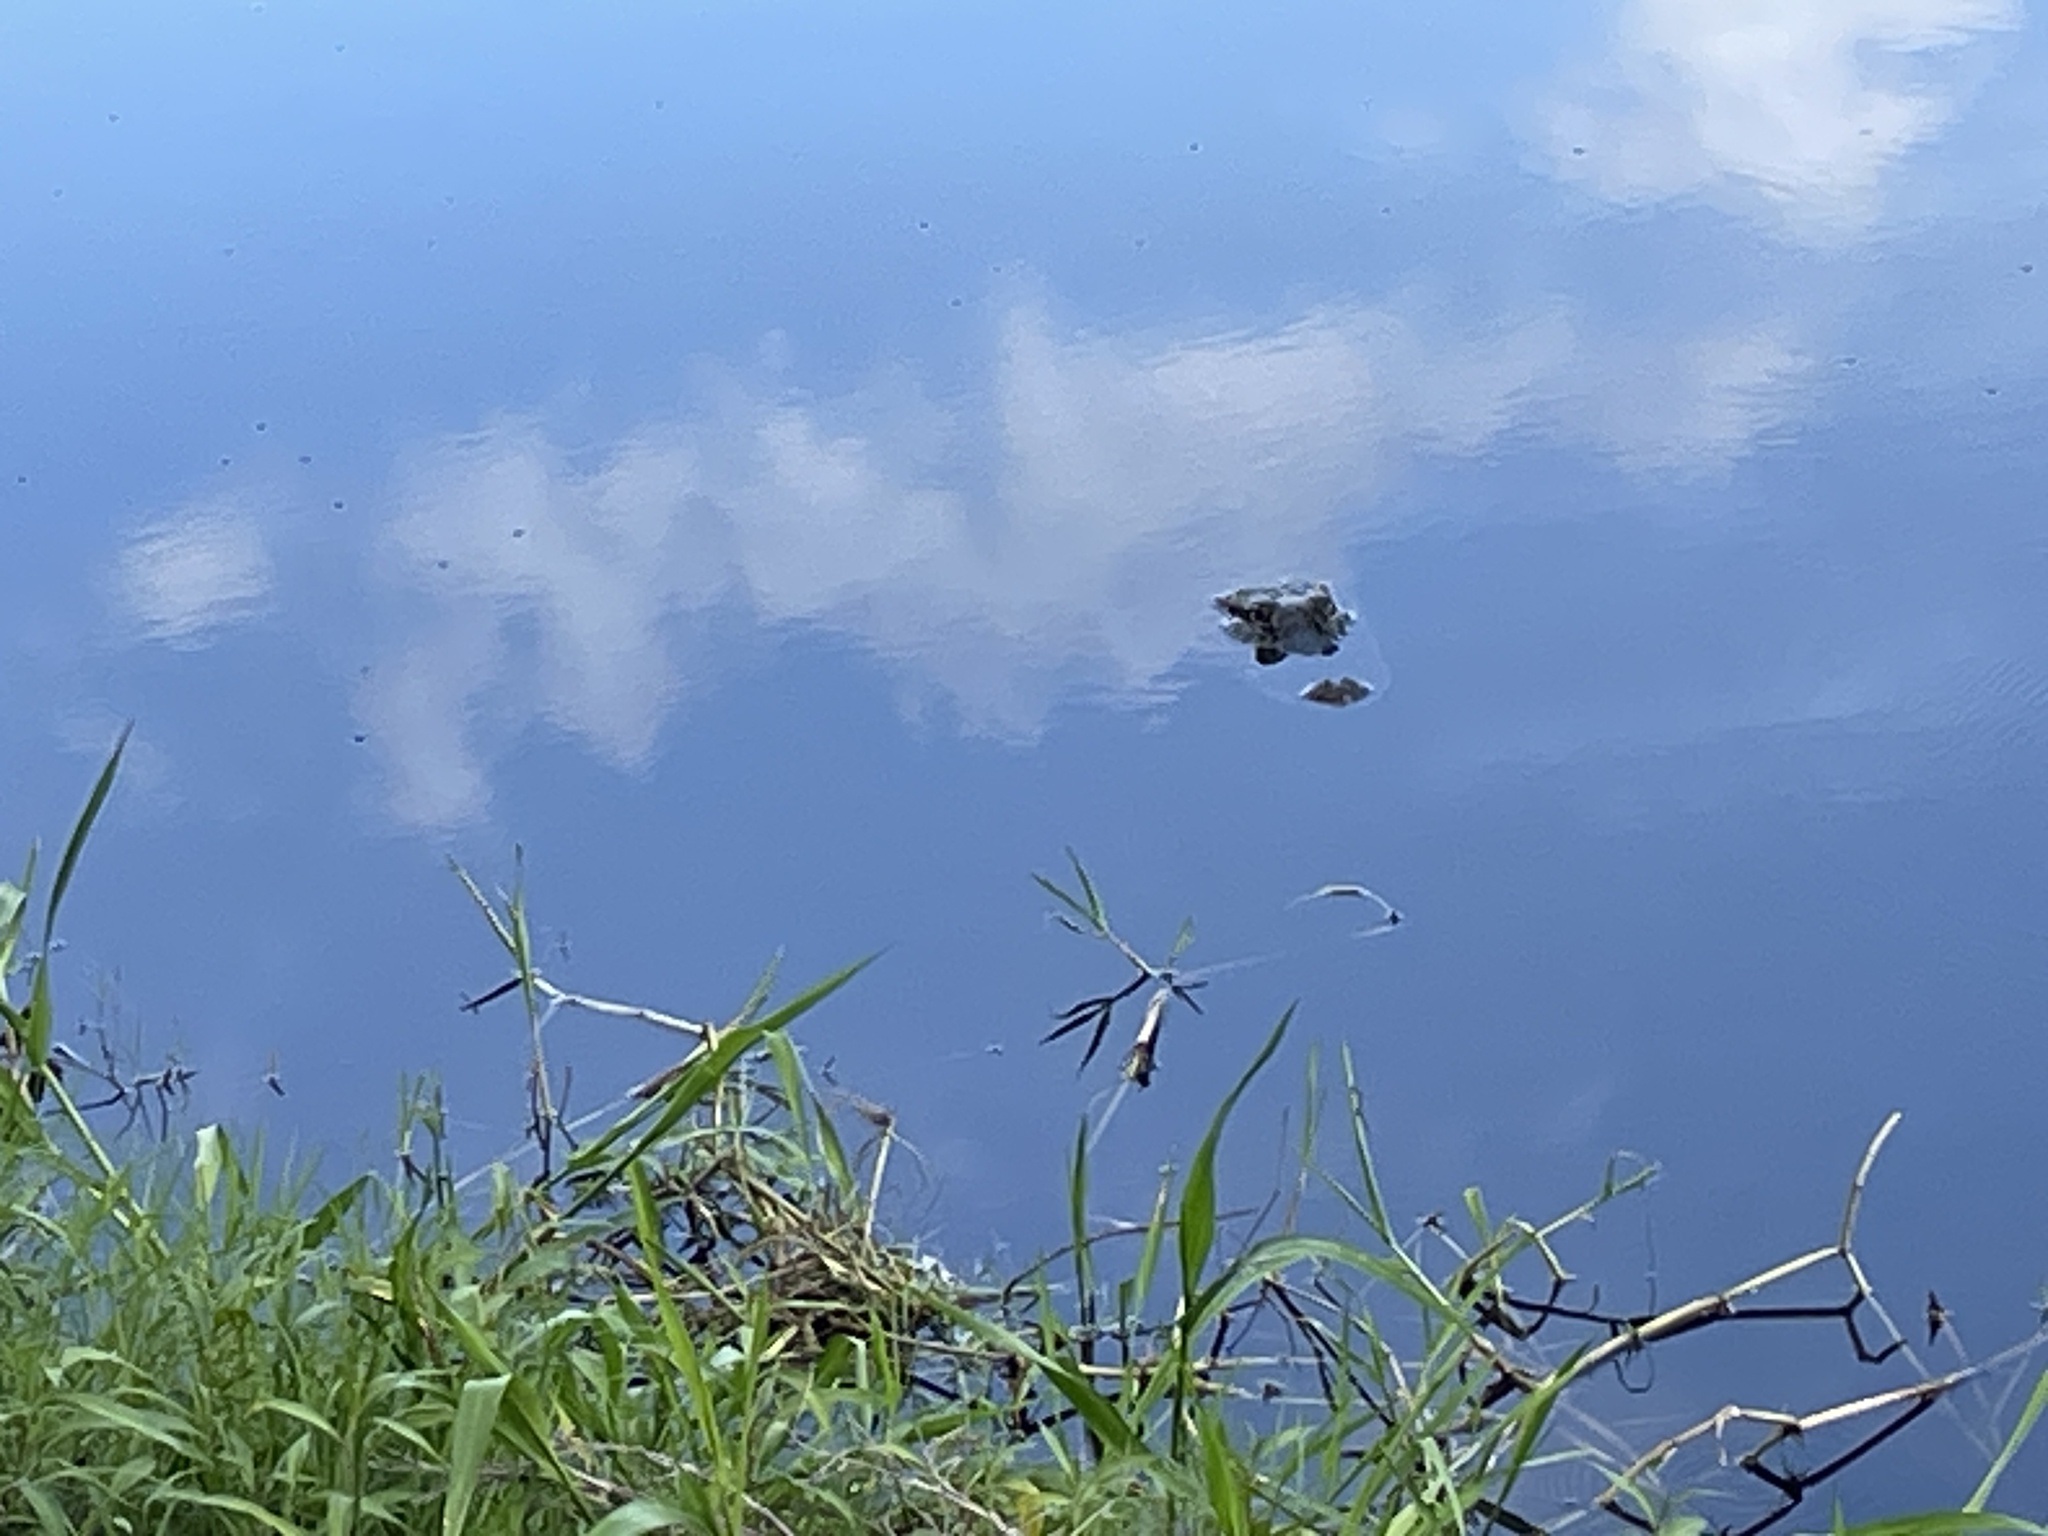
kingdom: Animalia
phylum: Chordata
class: Crocodylia
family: Alligatoridae
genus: Alligator
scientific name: Alligator mississippiensis
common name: American alligator
